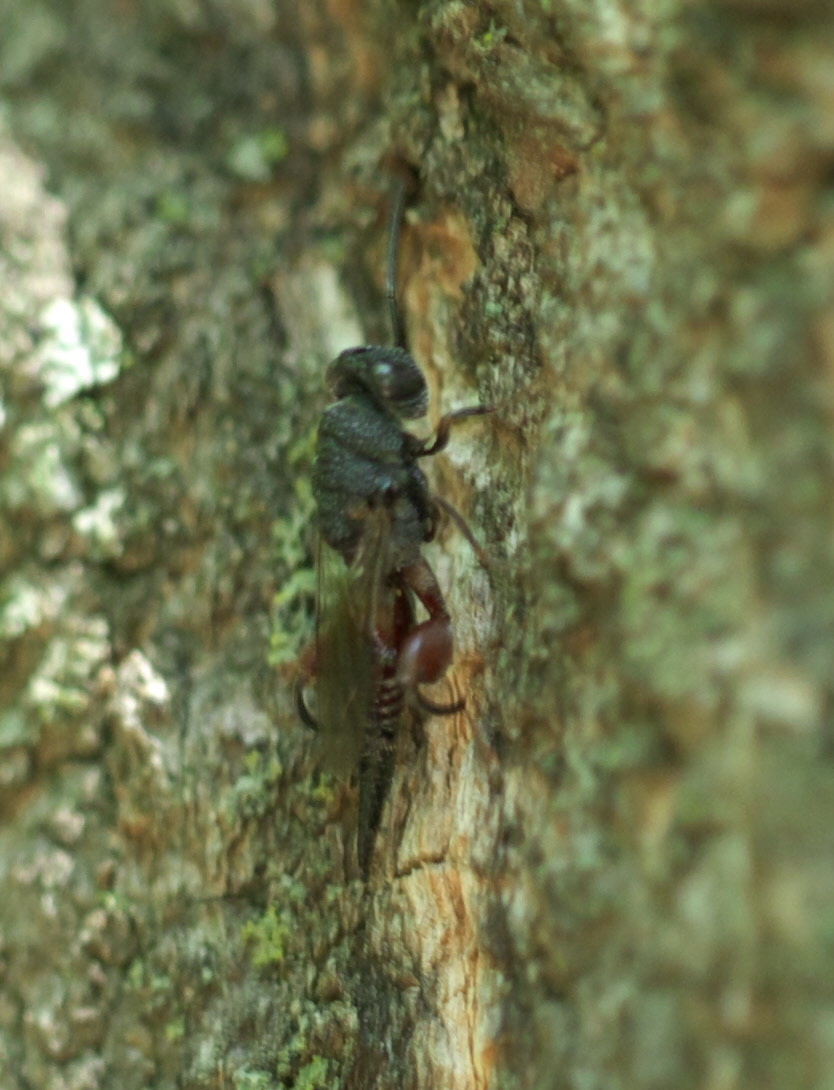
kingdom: Animalia
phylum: Arthropoda
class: Insecta
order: Hymenoptera
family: Chalcididae
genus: Phasgonophora
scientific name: Phasgonophora sulcata
